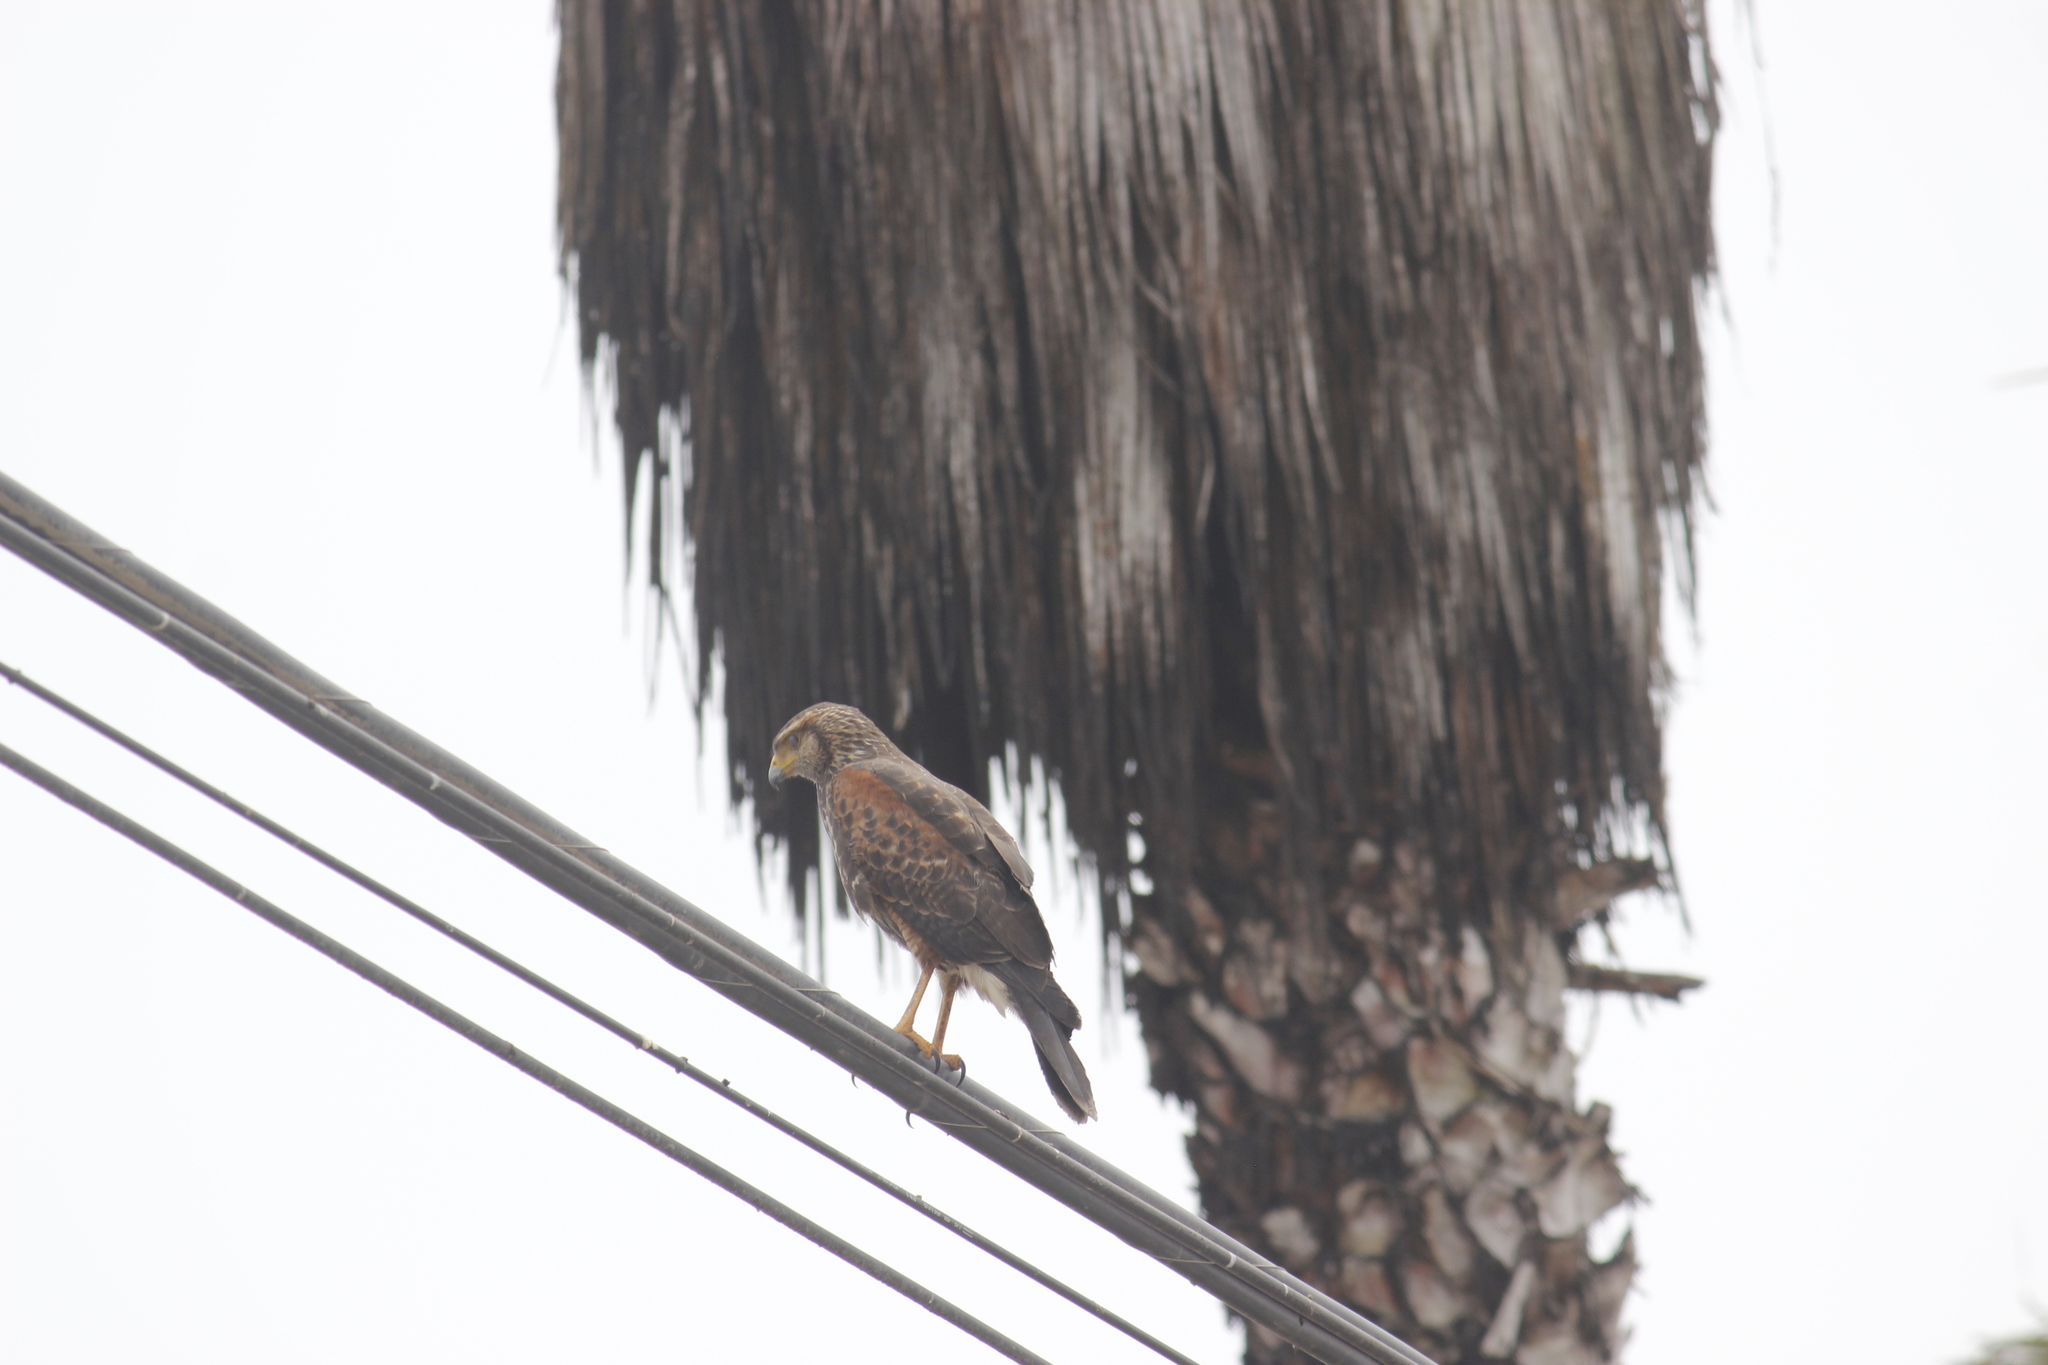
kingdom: Animalia
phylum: Chordata
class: Aves
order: Accipitriformes
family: Accipitridae
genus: Parabuteo
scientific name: Parabuteo unicinctus
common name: Harris's hawk
